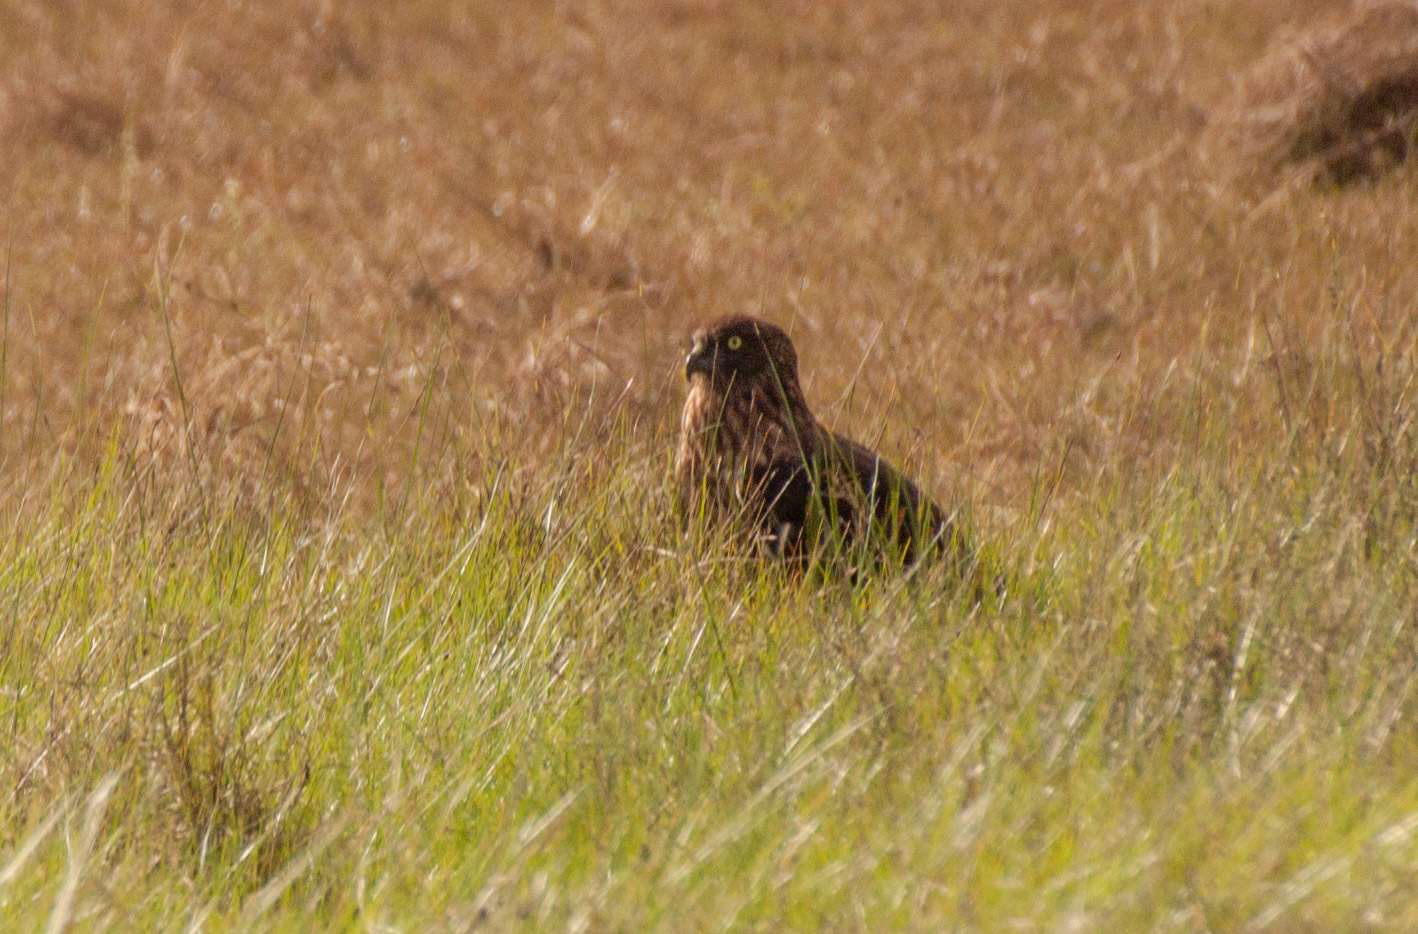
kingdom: Animalia
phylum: Chordata
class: Aves
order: Accipitriformes
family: Accipitridae
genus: Circus
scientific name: Circus approximans
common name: Swamp harrier
